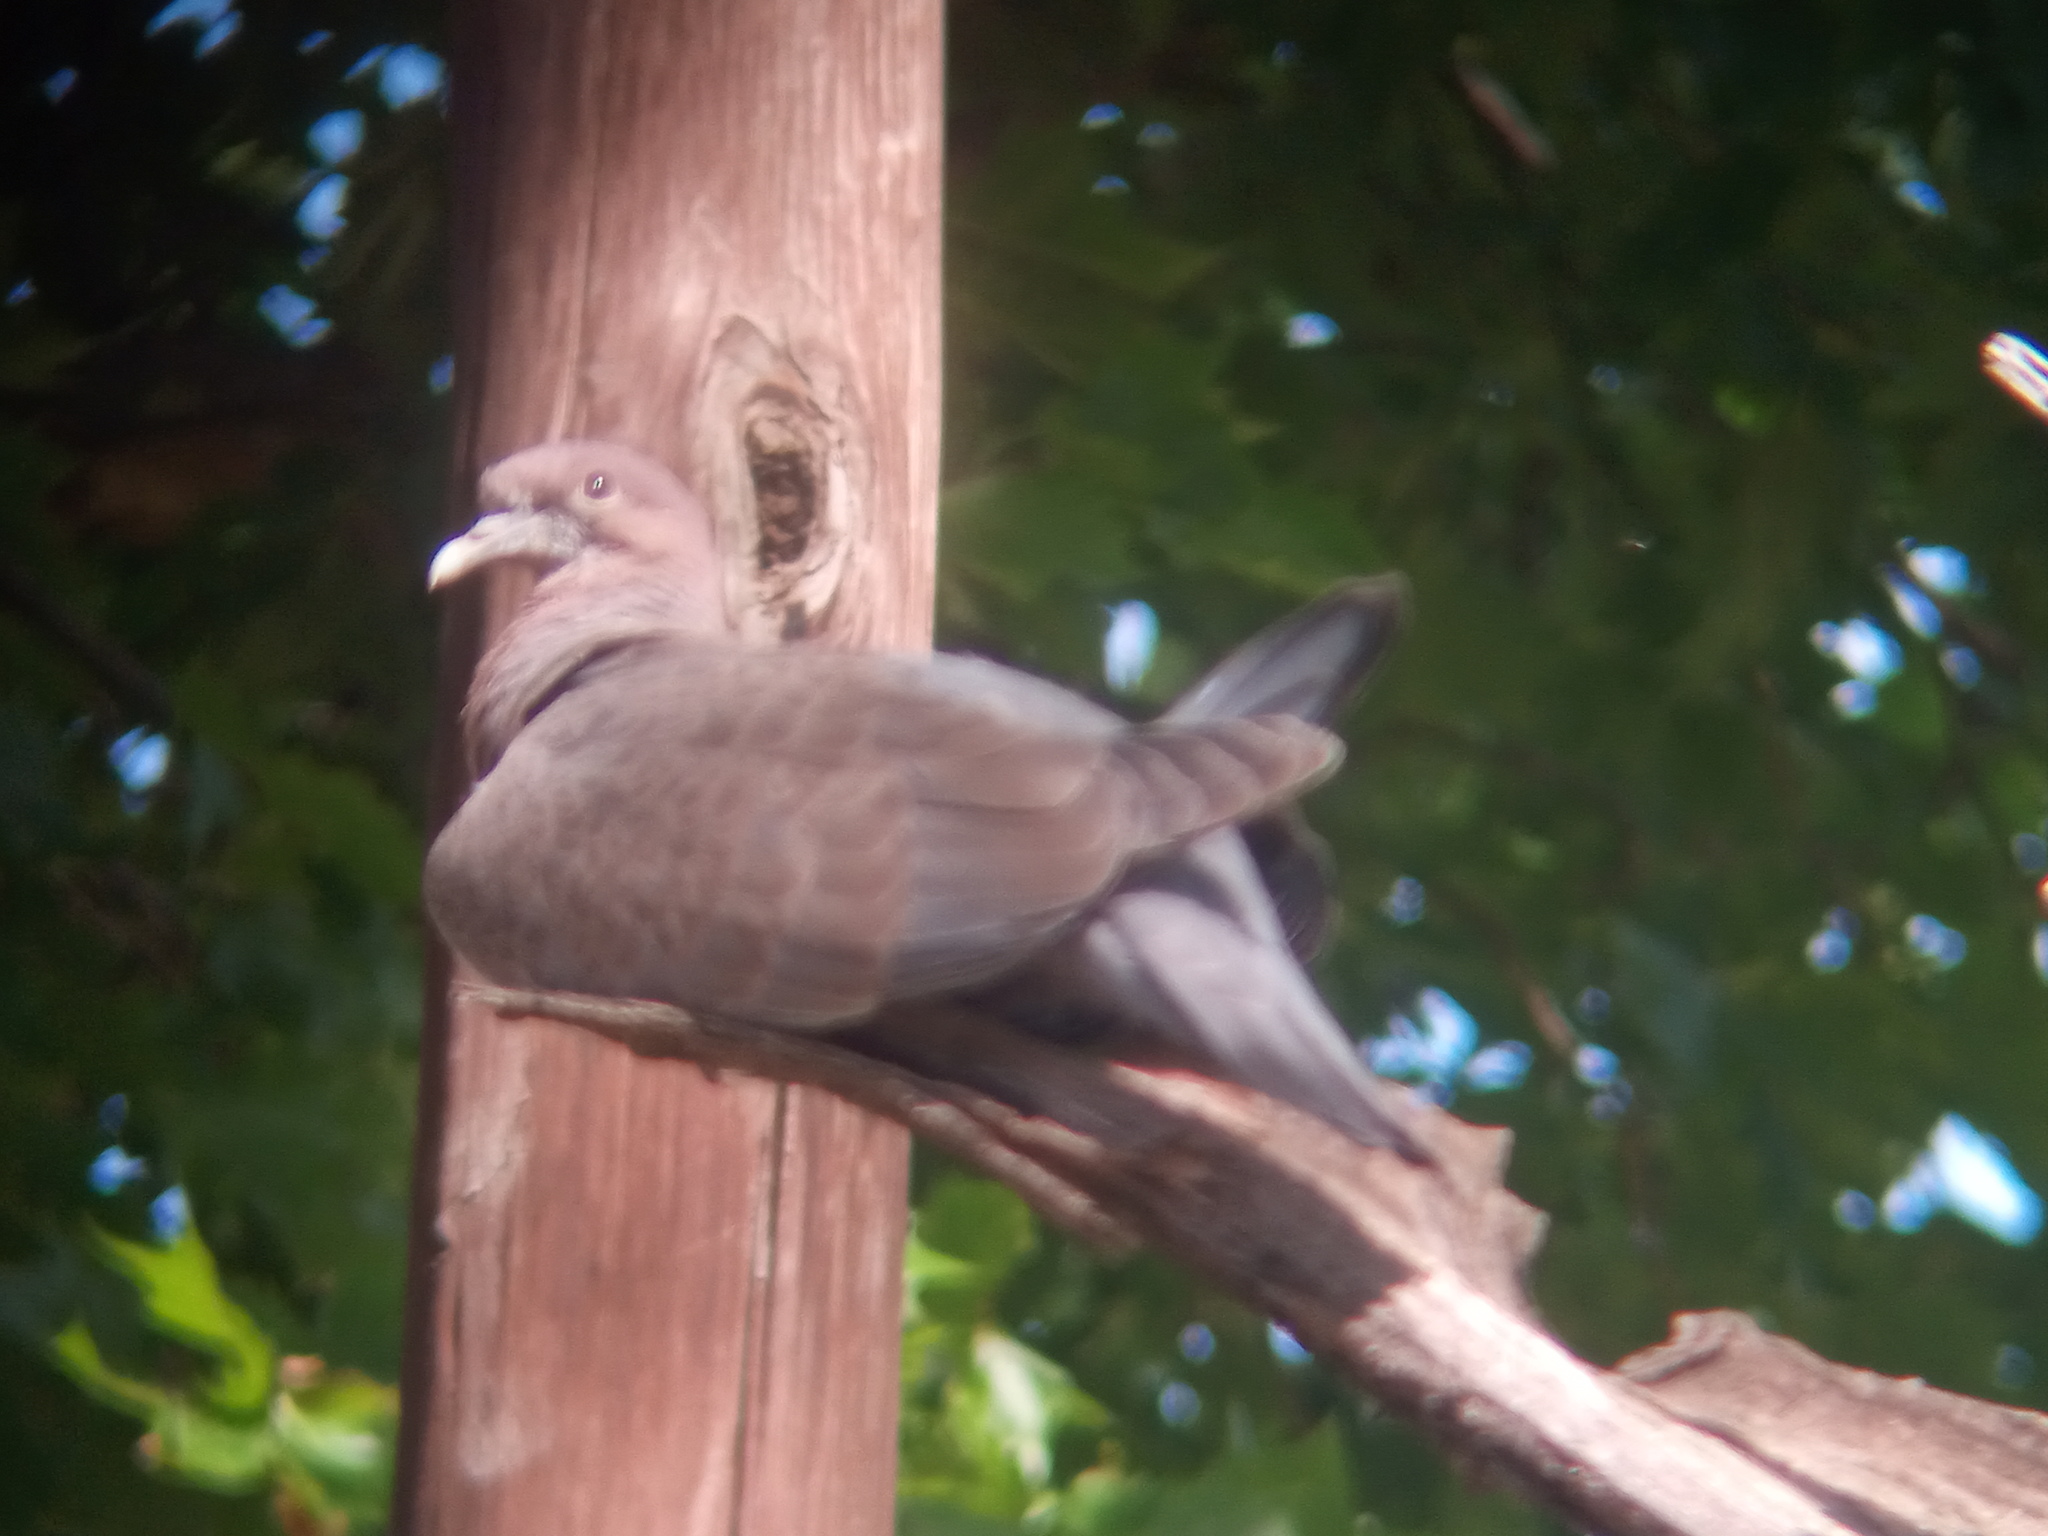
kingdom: Animalia
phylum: Chordata
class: Aves
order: Columbiformes
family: Columbidae
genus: Patagioenas
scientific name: Patagioenas picazuro
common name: Picazuro pigeon
